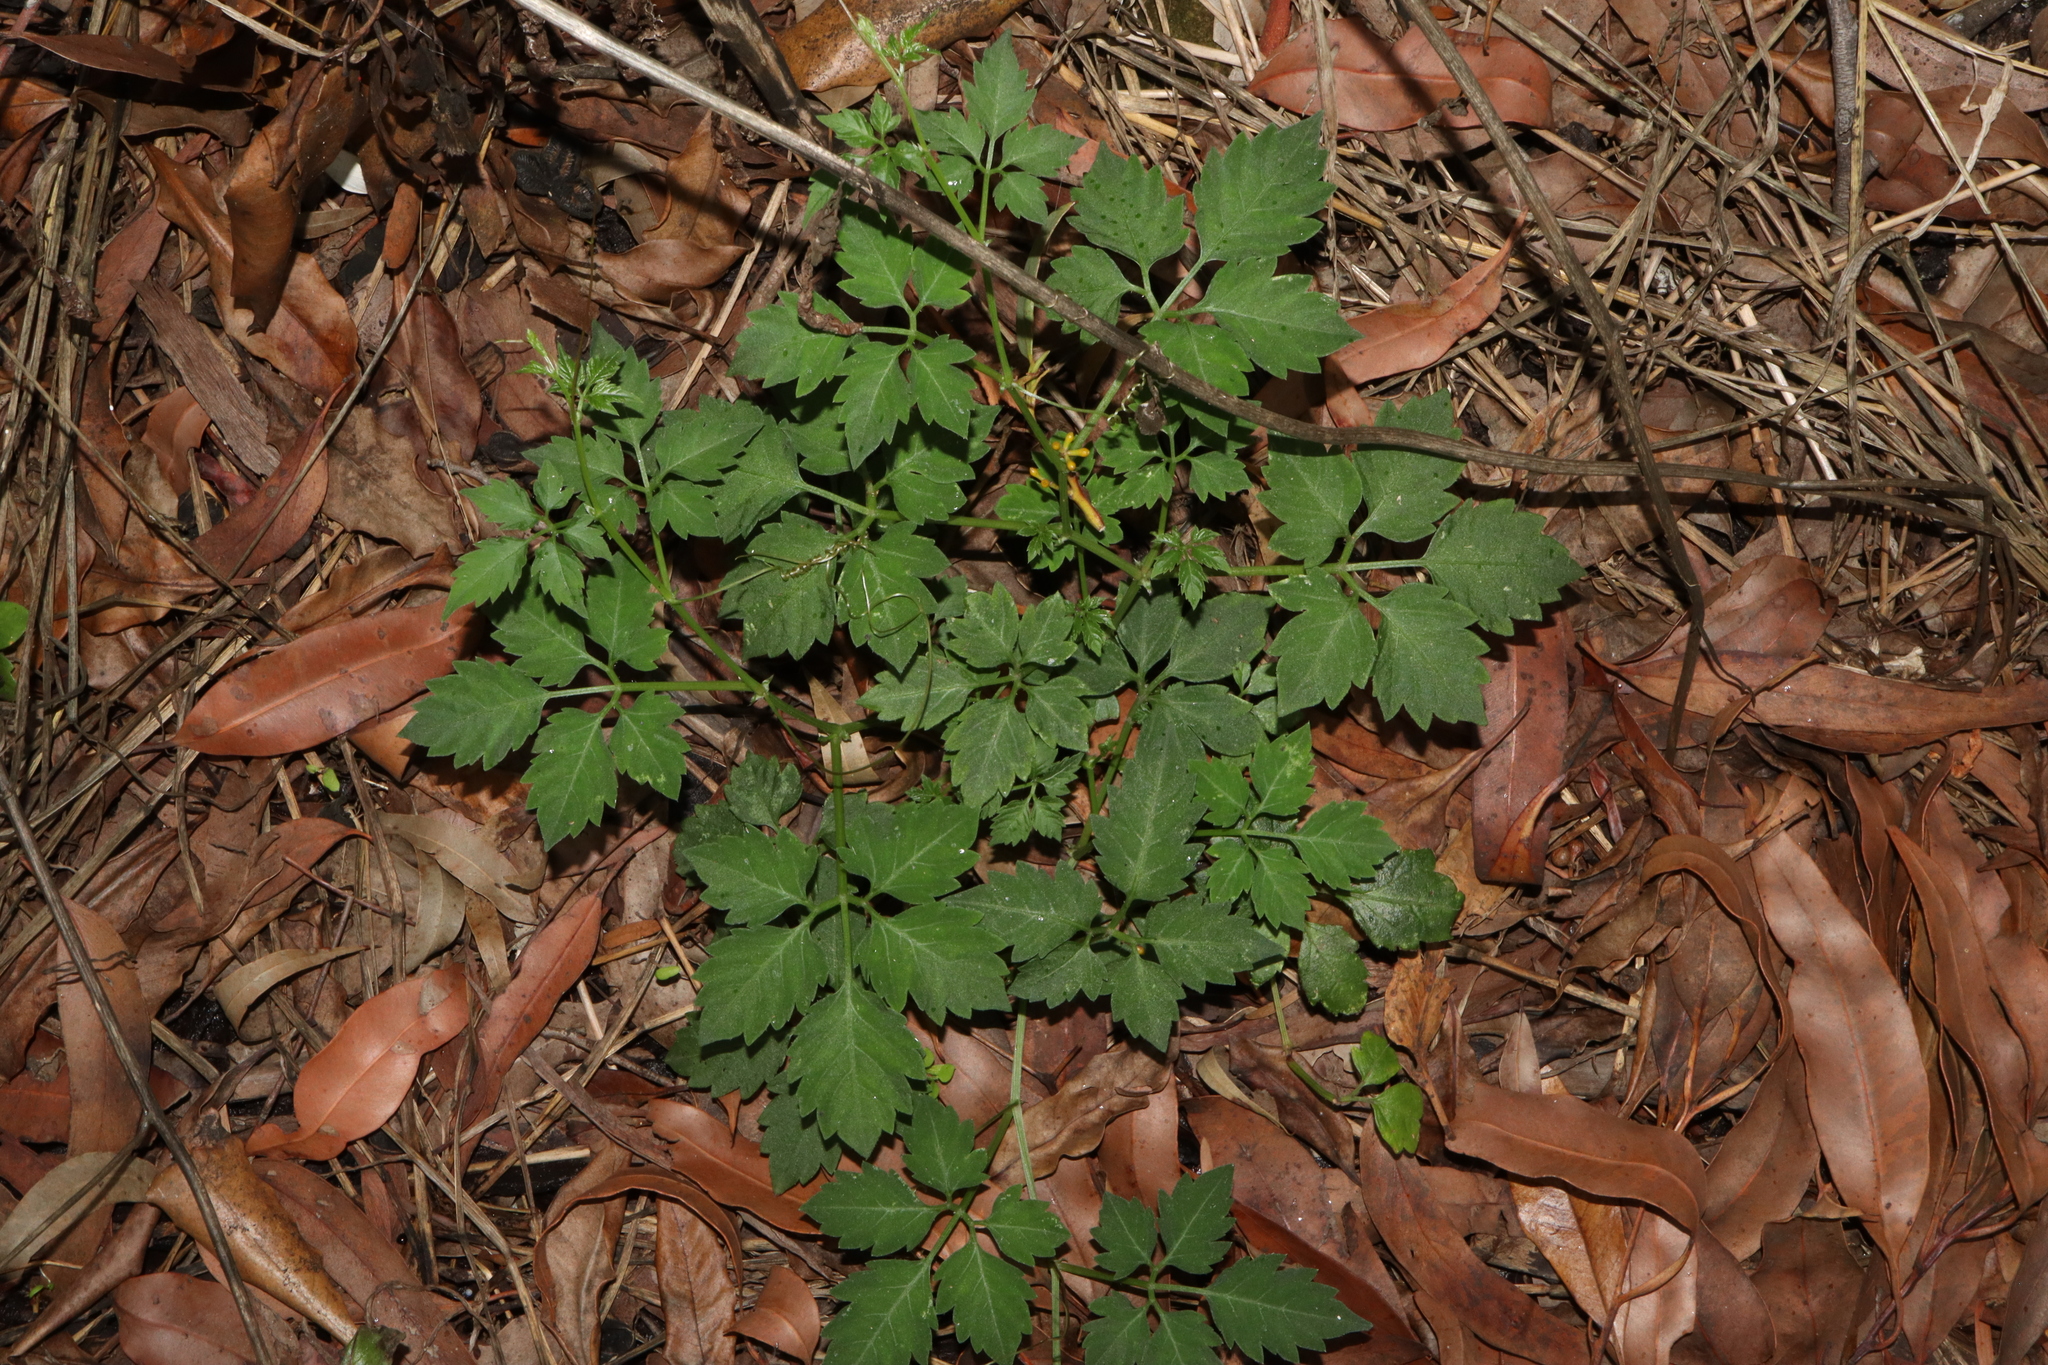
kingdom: Plantae
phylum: Tracheophyta
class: Magnoliopsida
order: Vitales
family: Vitaceae
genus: Causonis
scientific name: Causonis clematidea
